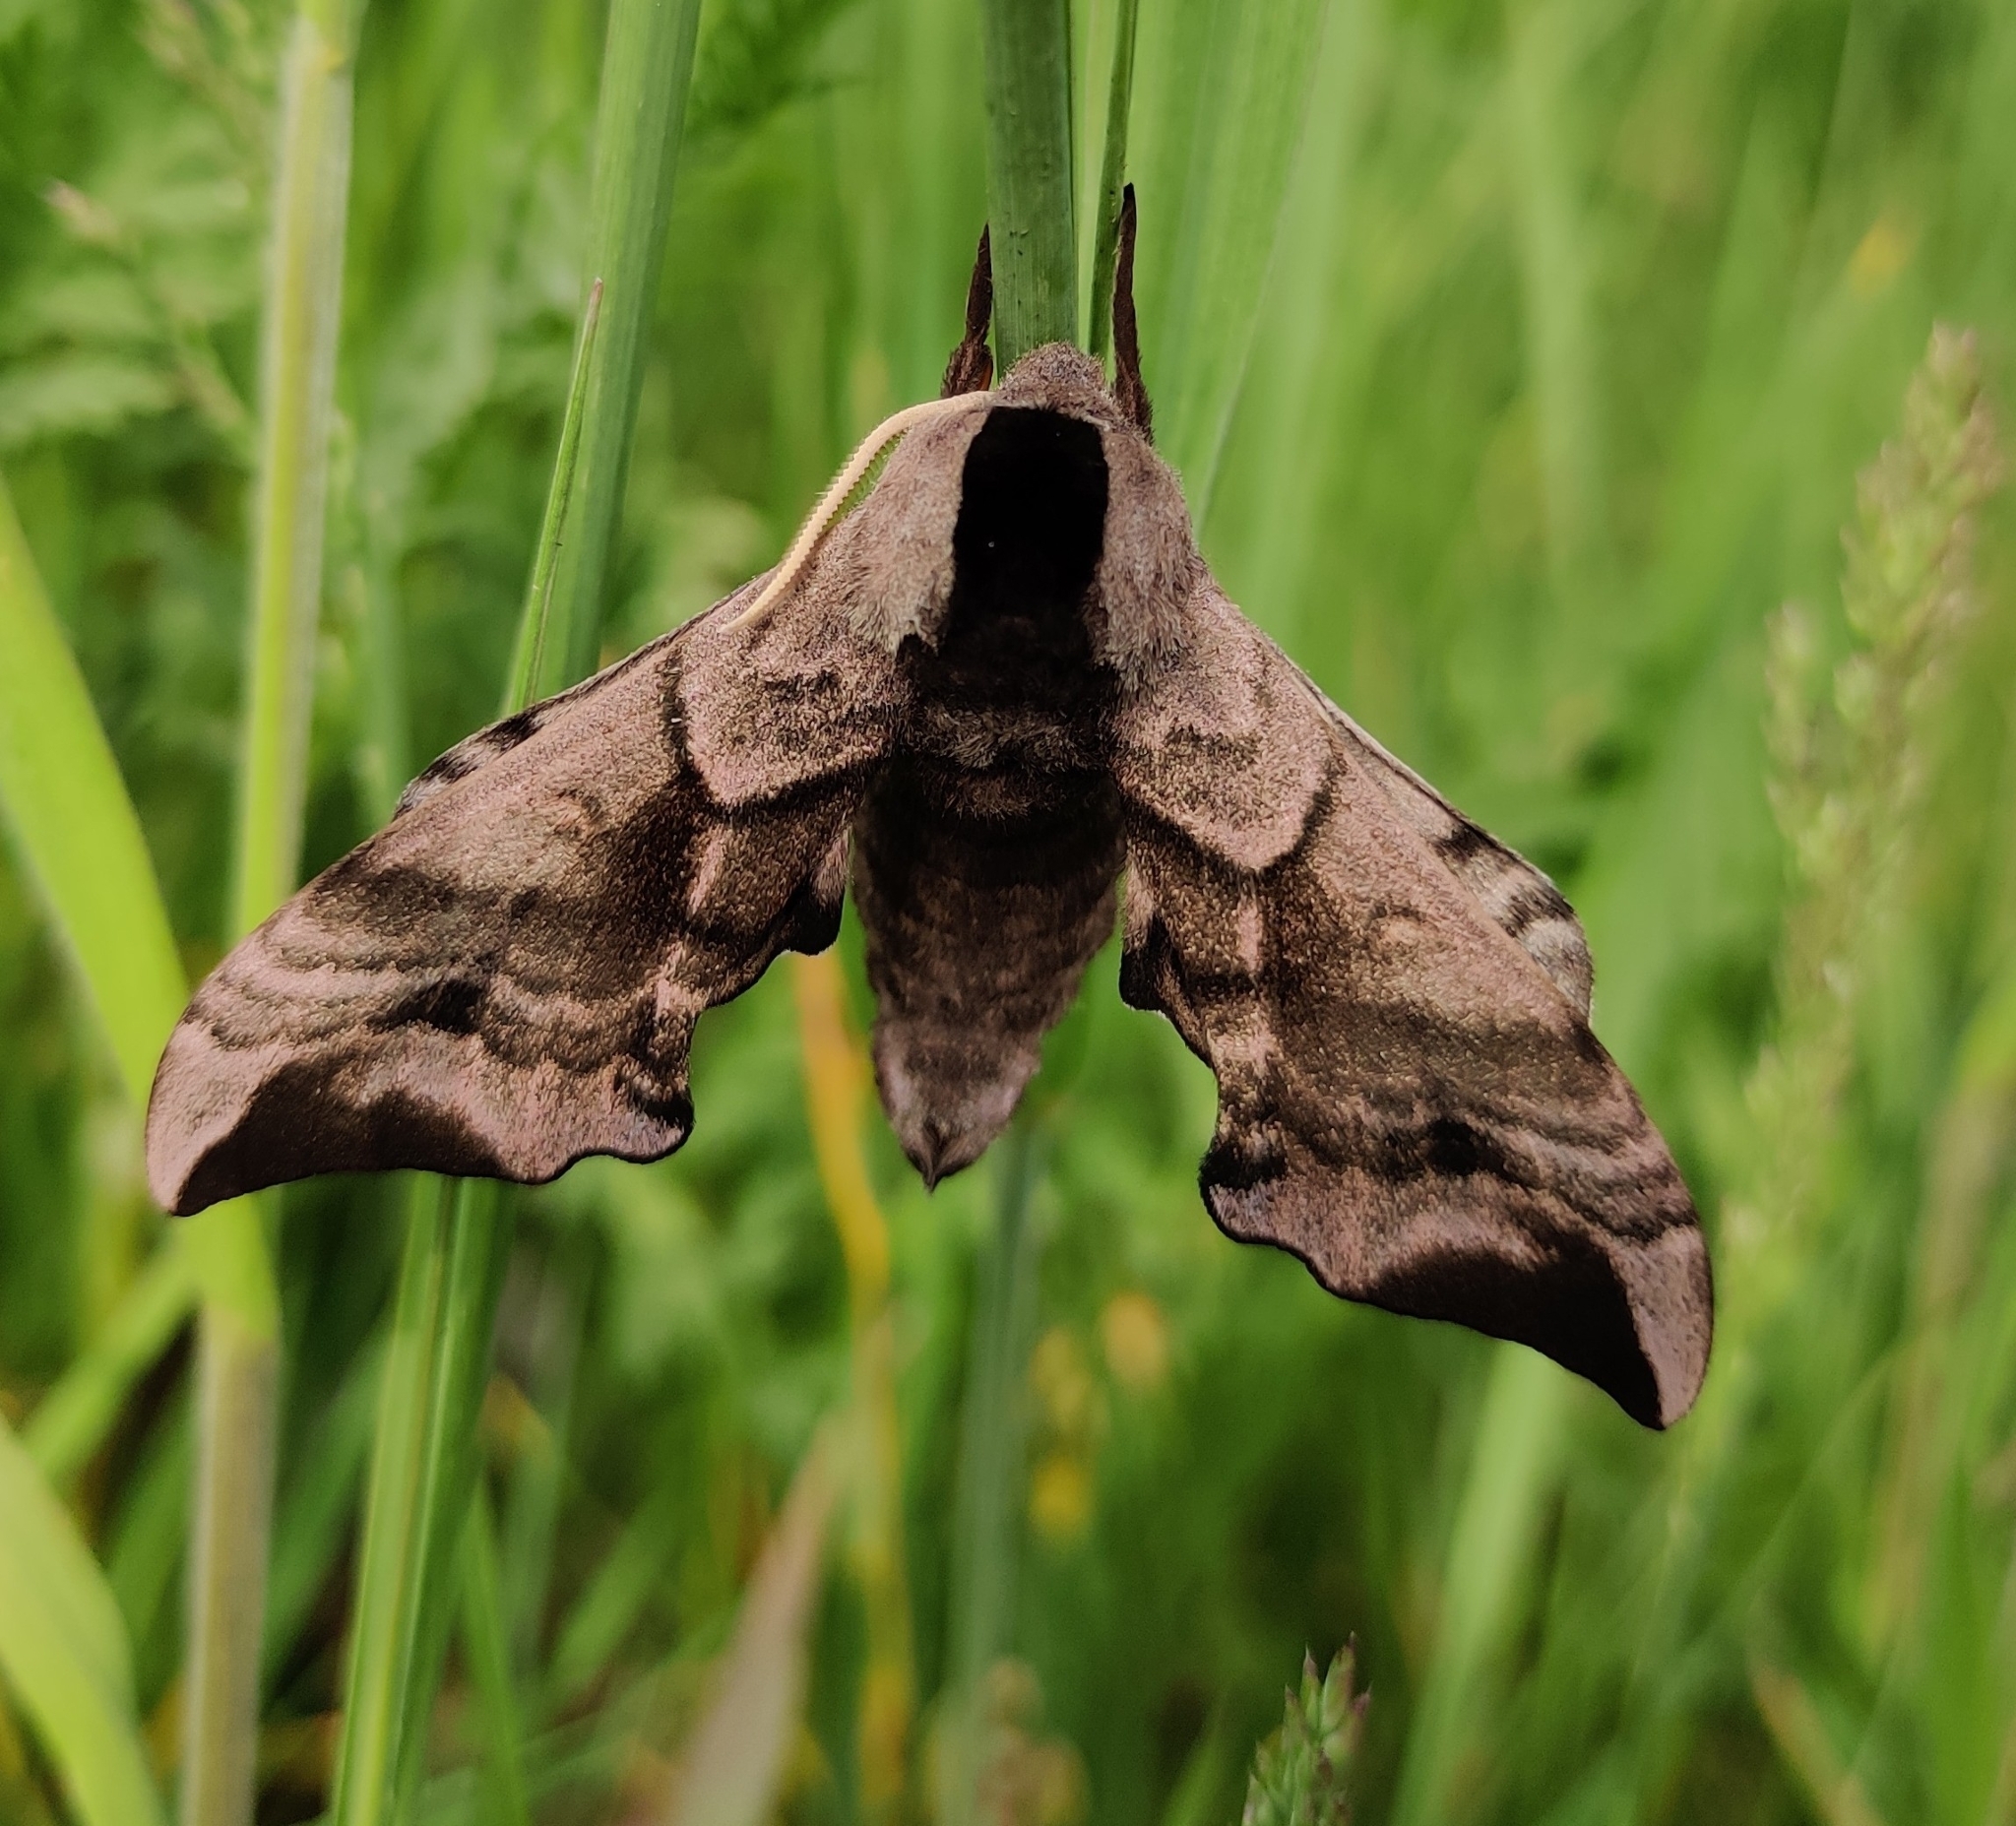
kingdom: Animalia
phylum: Arthropoda
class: Insecta
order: Lepidoptera
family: Sphingidae
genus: Smerinthus
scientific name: Smerinthus ocellata
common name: Eyed hawk-moth
